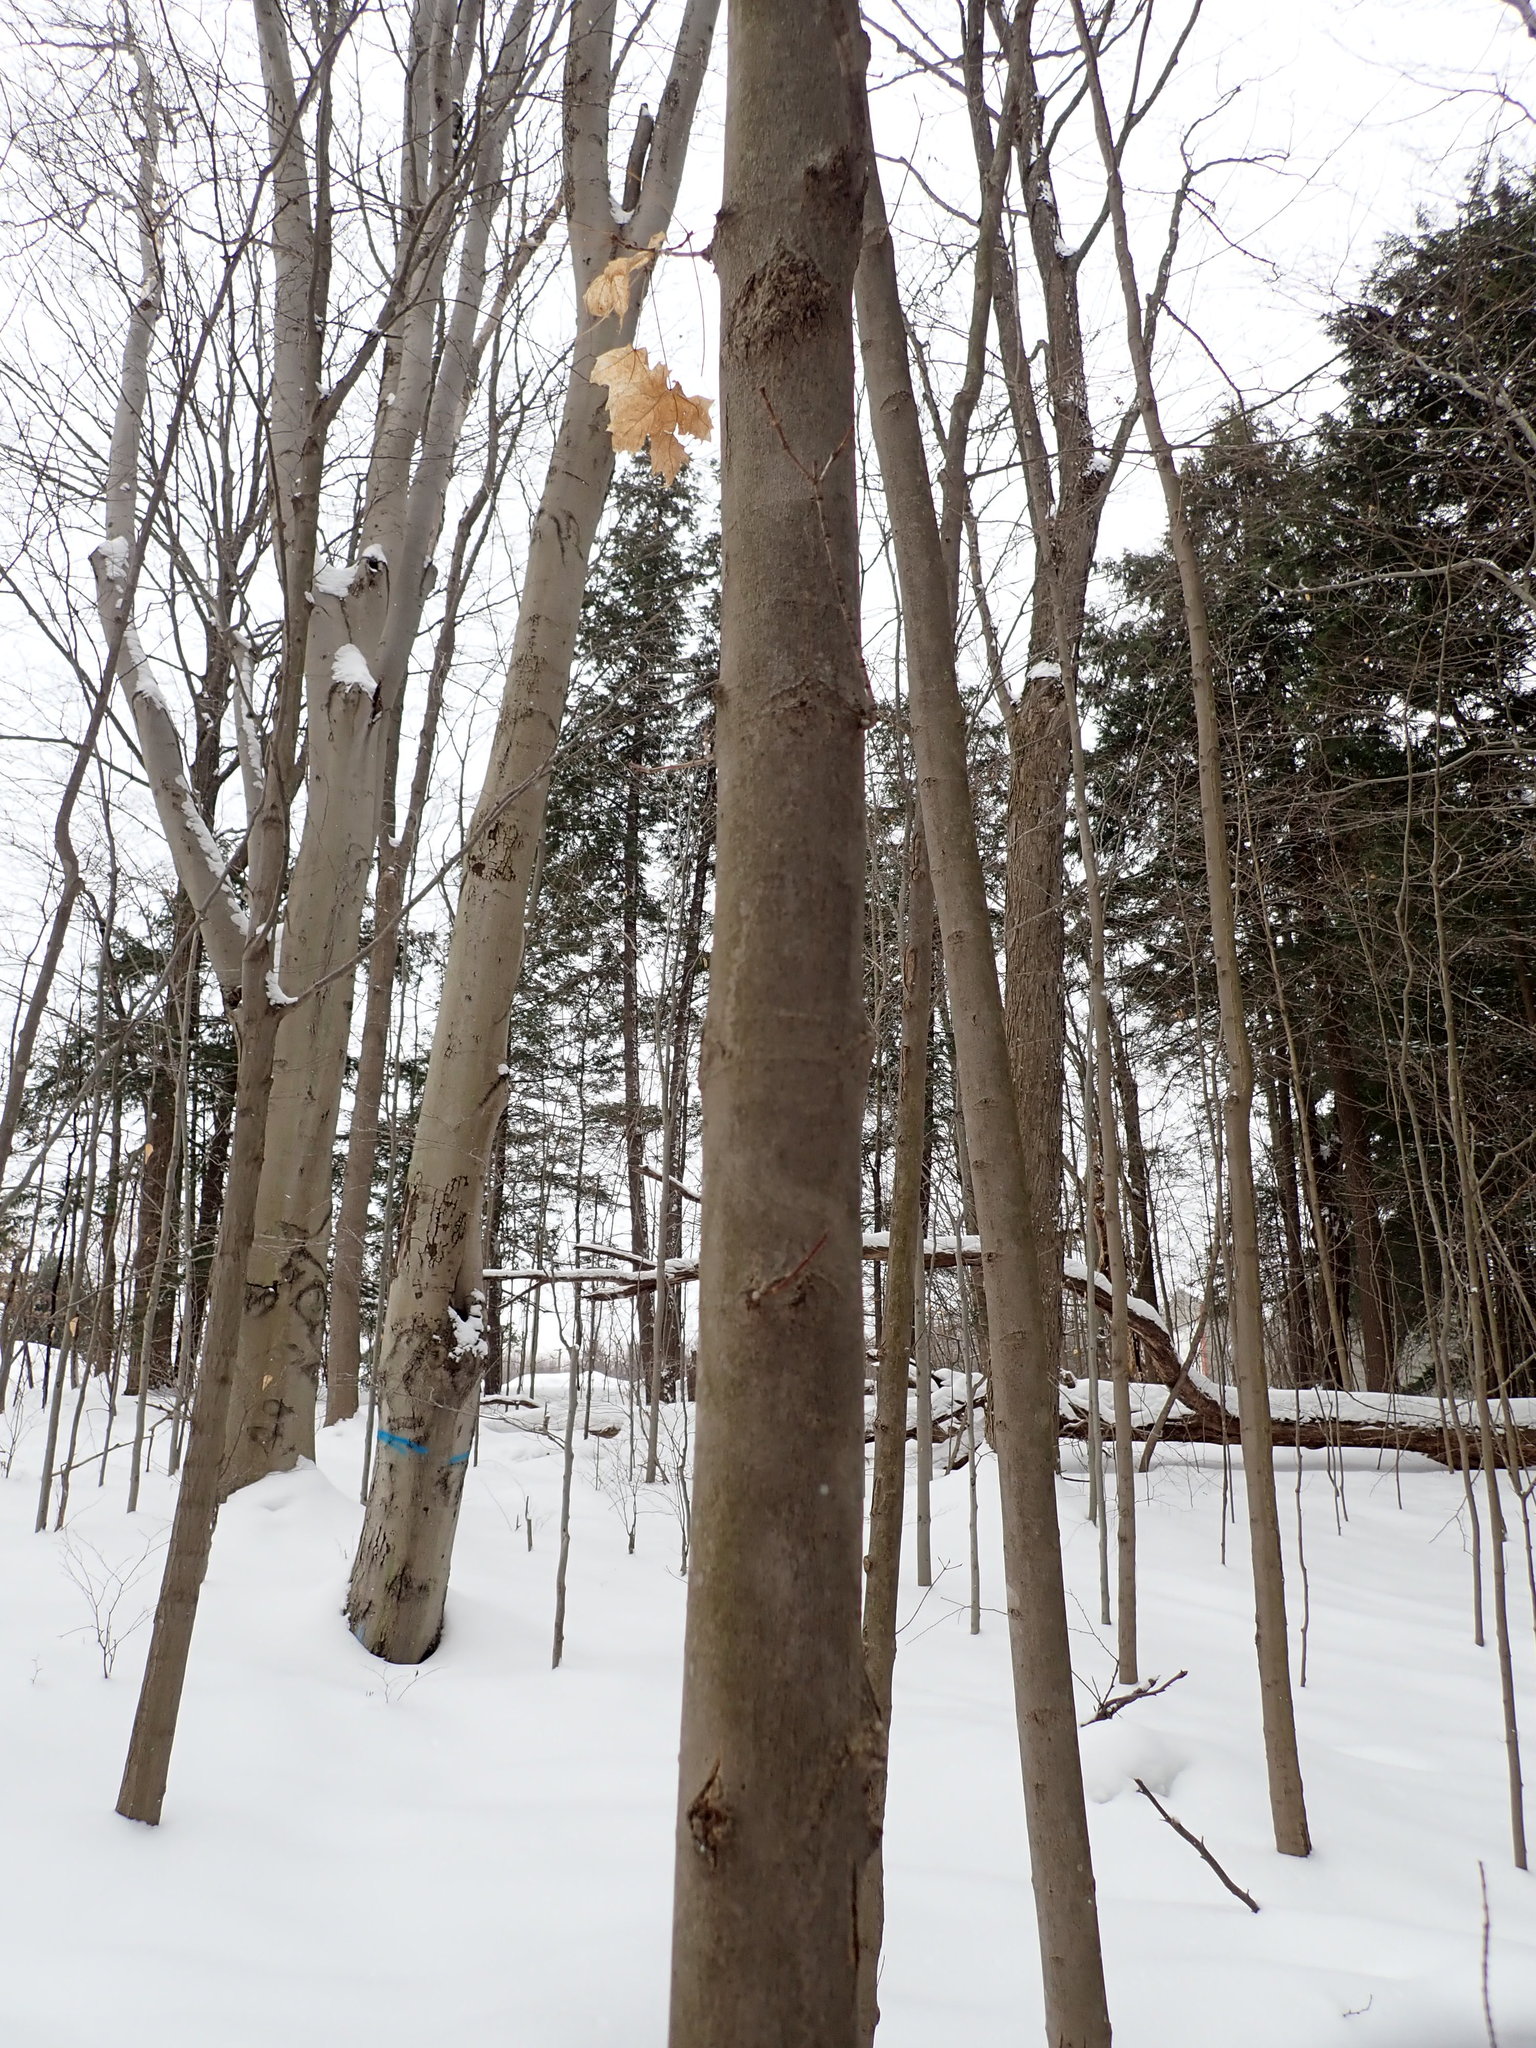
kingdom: Plantae
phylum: Tracheophyta
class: Magnoliopsida
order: Sapindales
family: Sapindaceae
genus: Acer
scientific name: Acer saccharum
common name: Sugar maple
